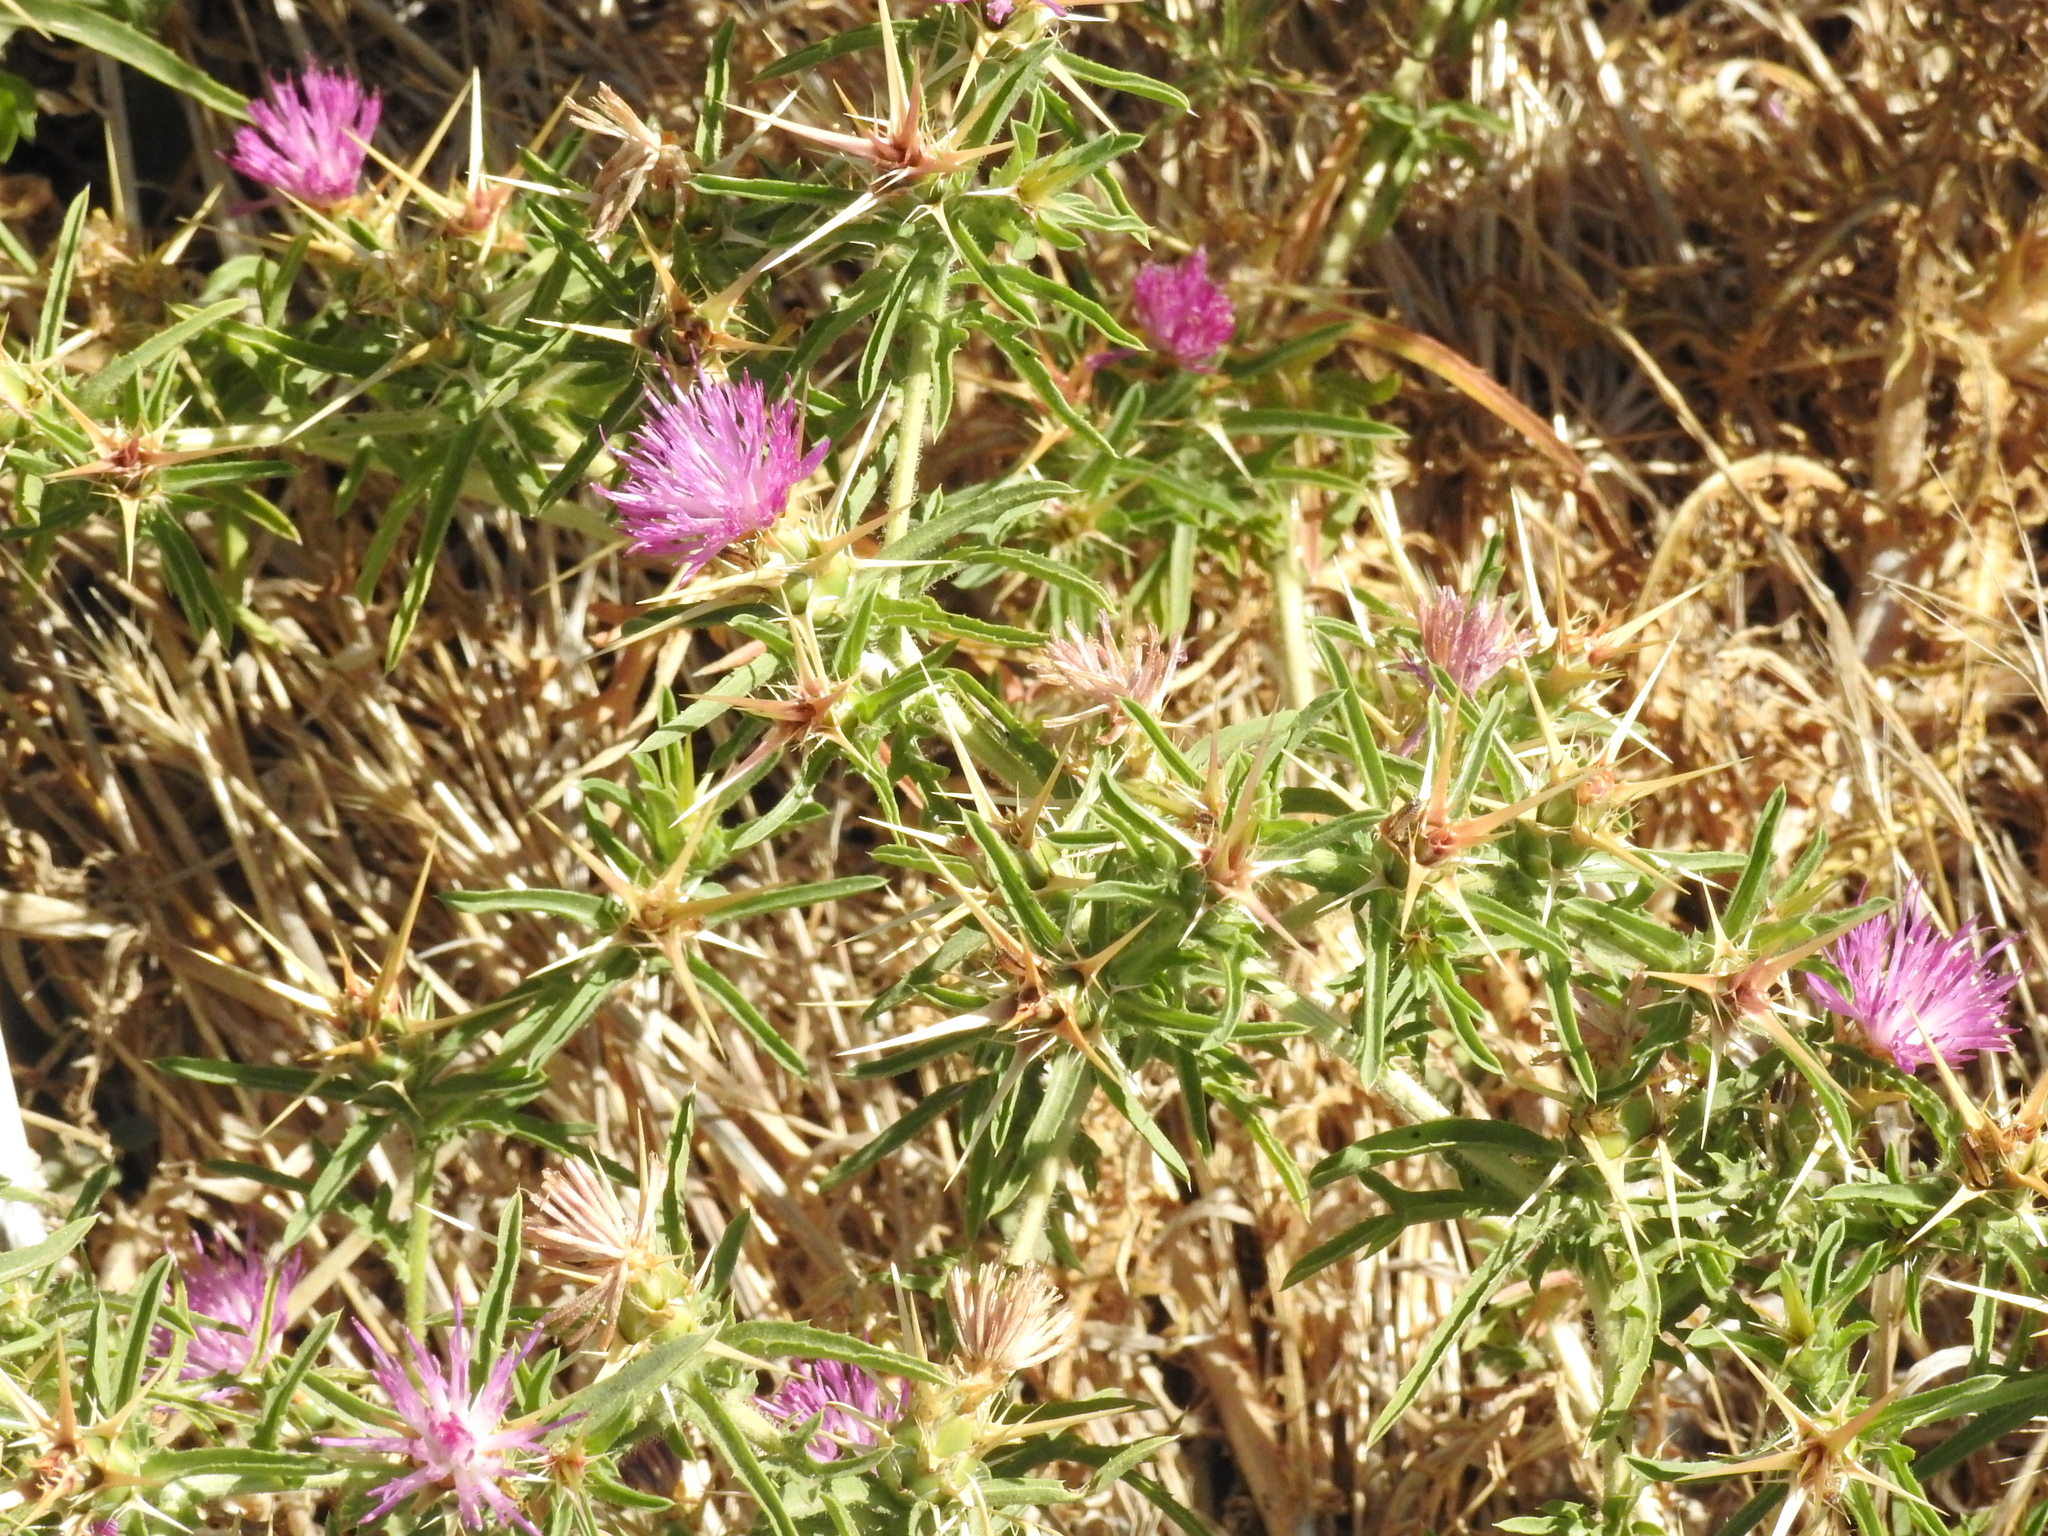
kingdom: Plantae
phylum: Tracheophyta
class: Magnoliopsida
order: Asterales
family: Asteraceae
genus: Centaurea
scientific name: Centaurea calcitrapa
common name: Red star-thistle
